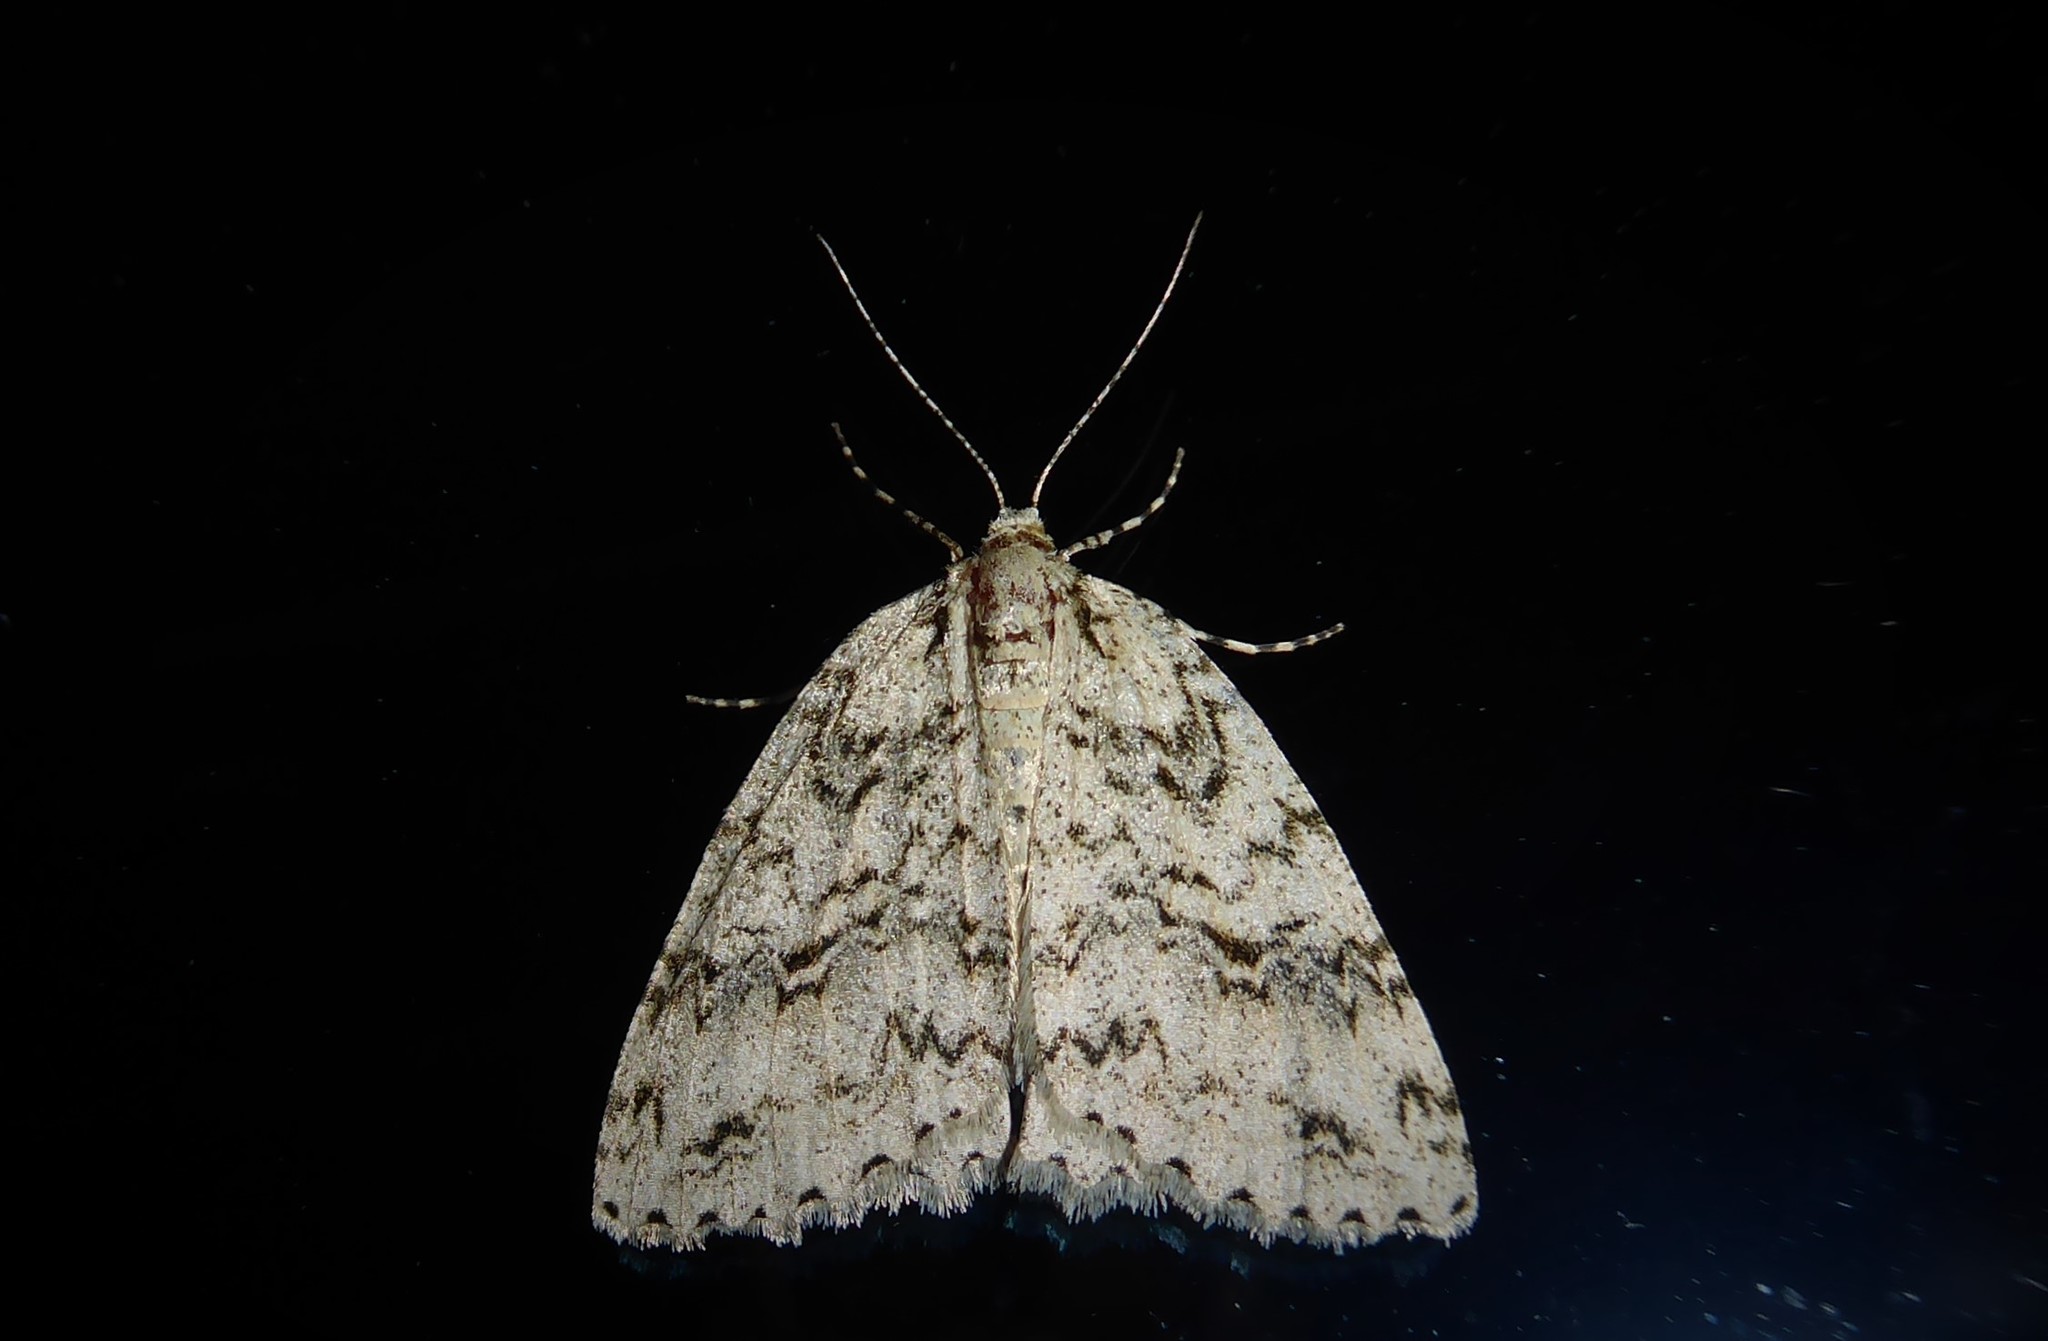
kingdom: Animalia
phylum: Arthropoda
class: Insecta
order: Lepidoptera
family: Geometridae
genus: Pseudocoremia
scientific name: Pseudocoremia rudisata
